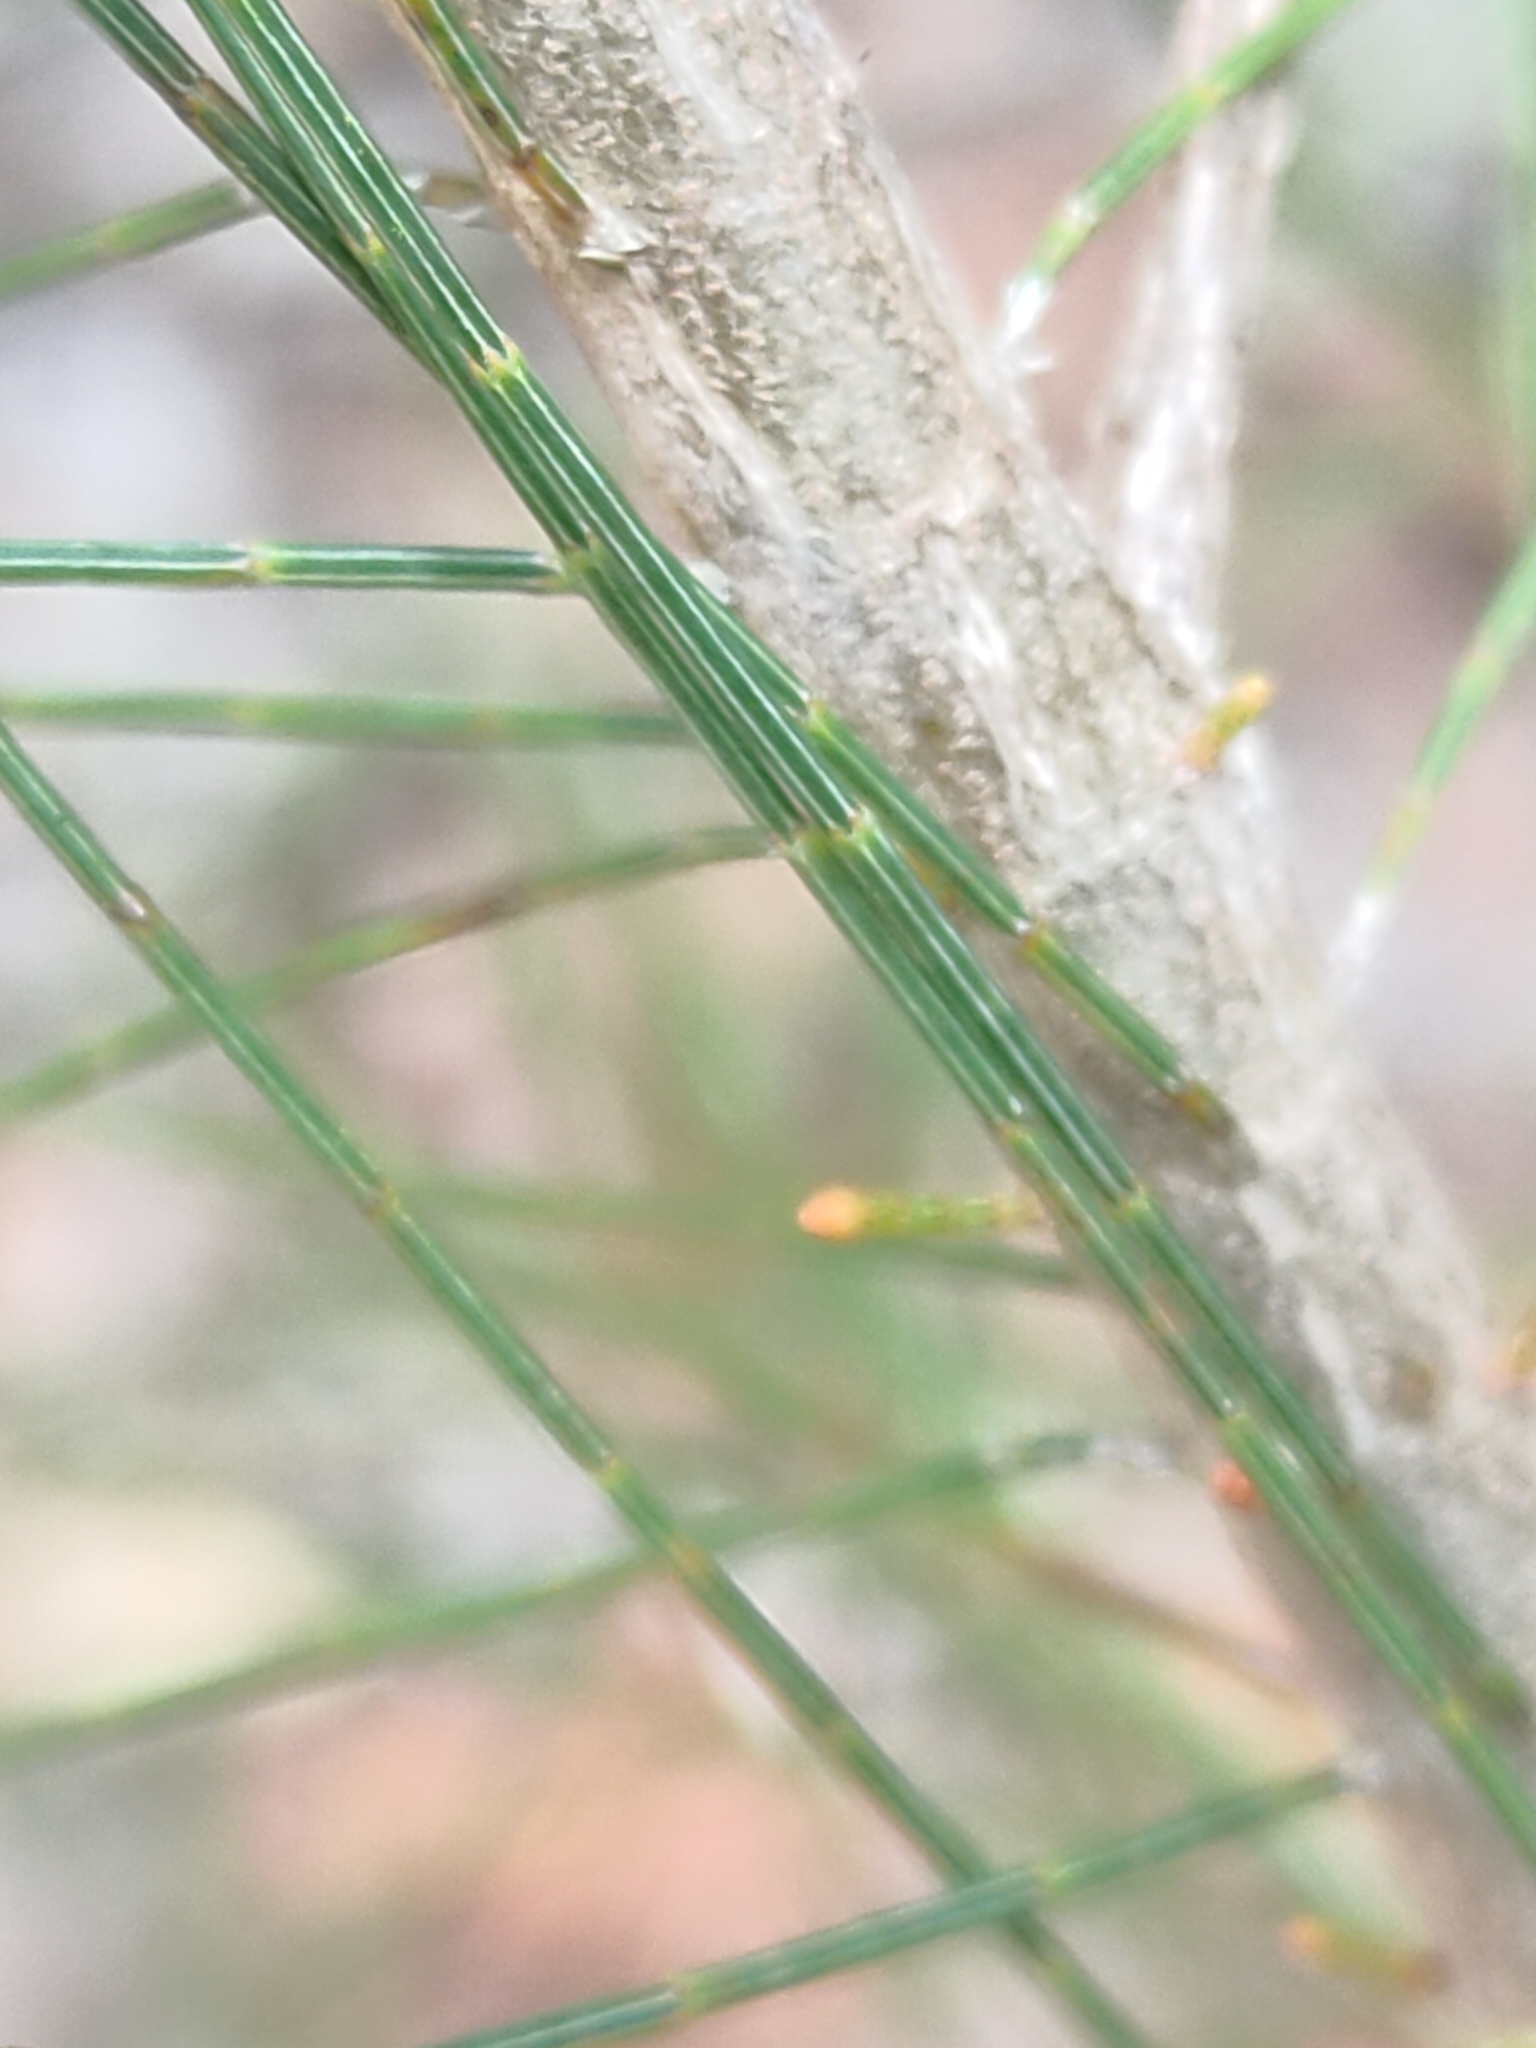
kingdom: Plantae
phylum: Tracheophyta
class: Magnoliopsida
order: Fagales
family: Casuarinaceae
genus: Allocasuarina
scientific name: Allocasuarina littoralis
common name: Black she-oak
